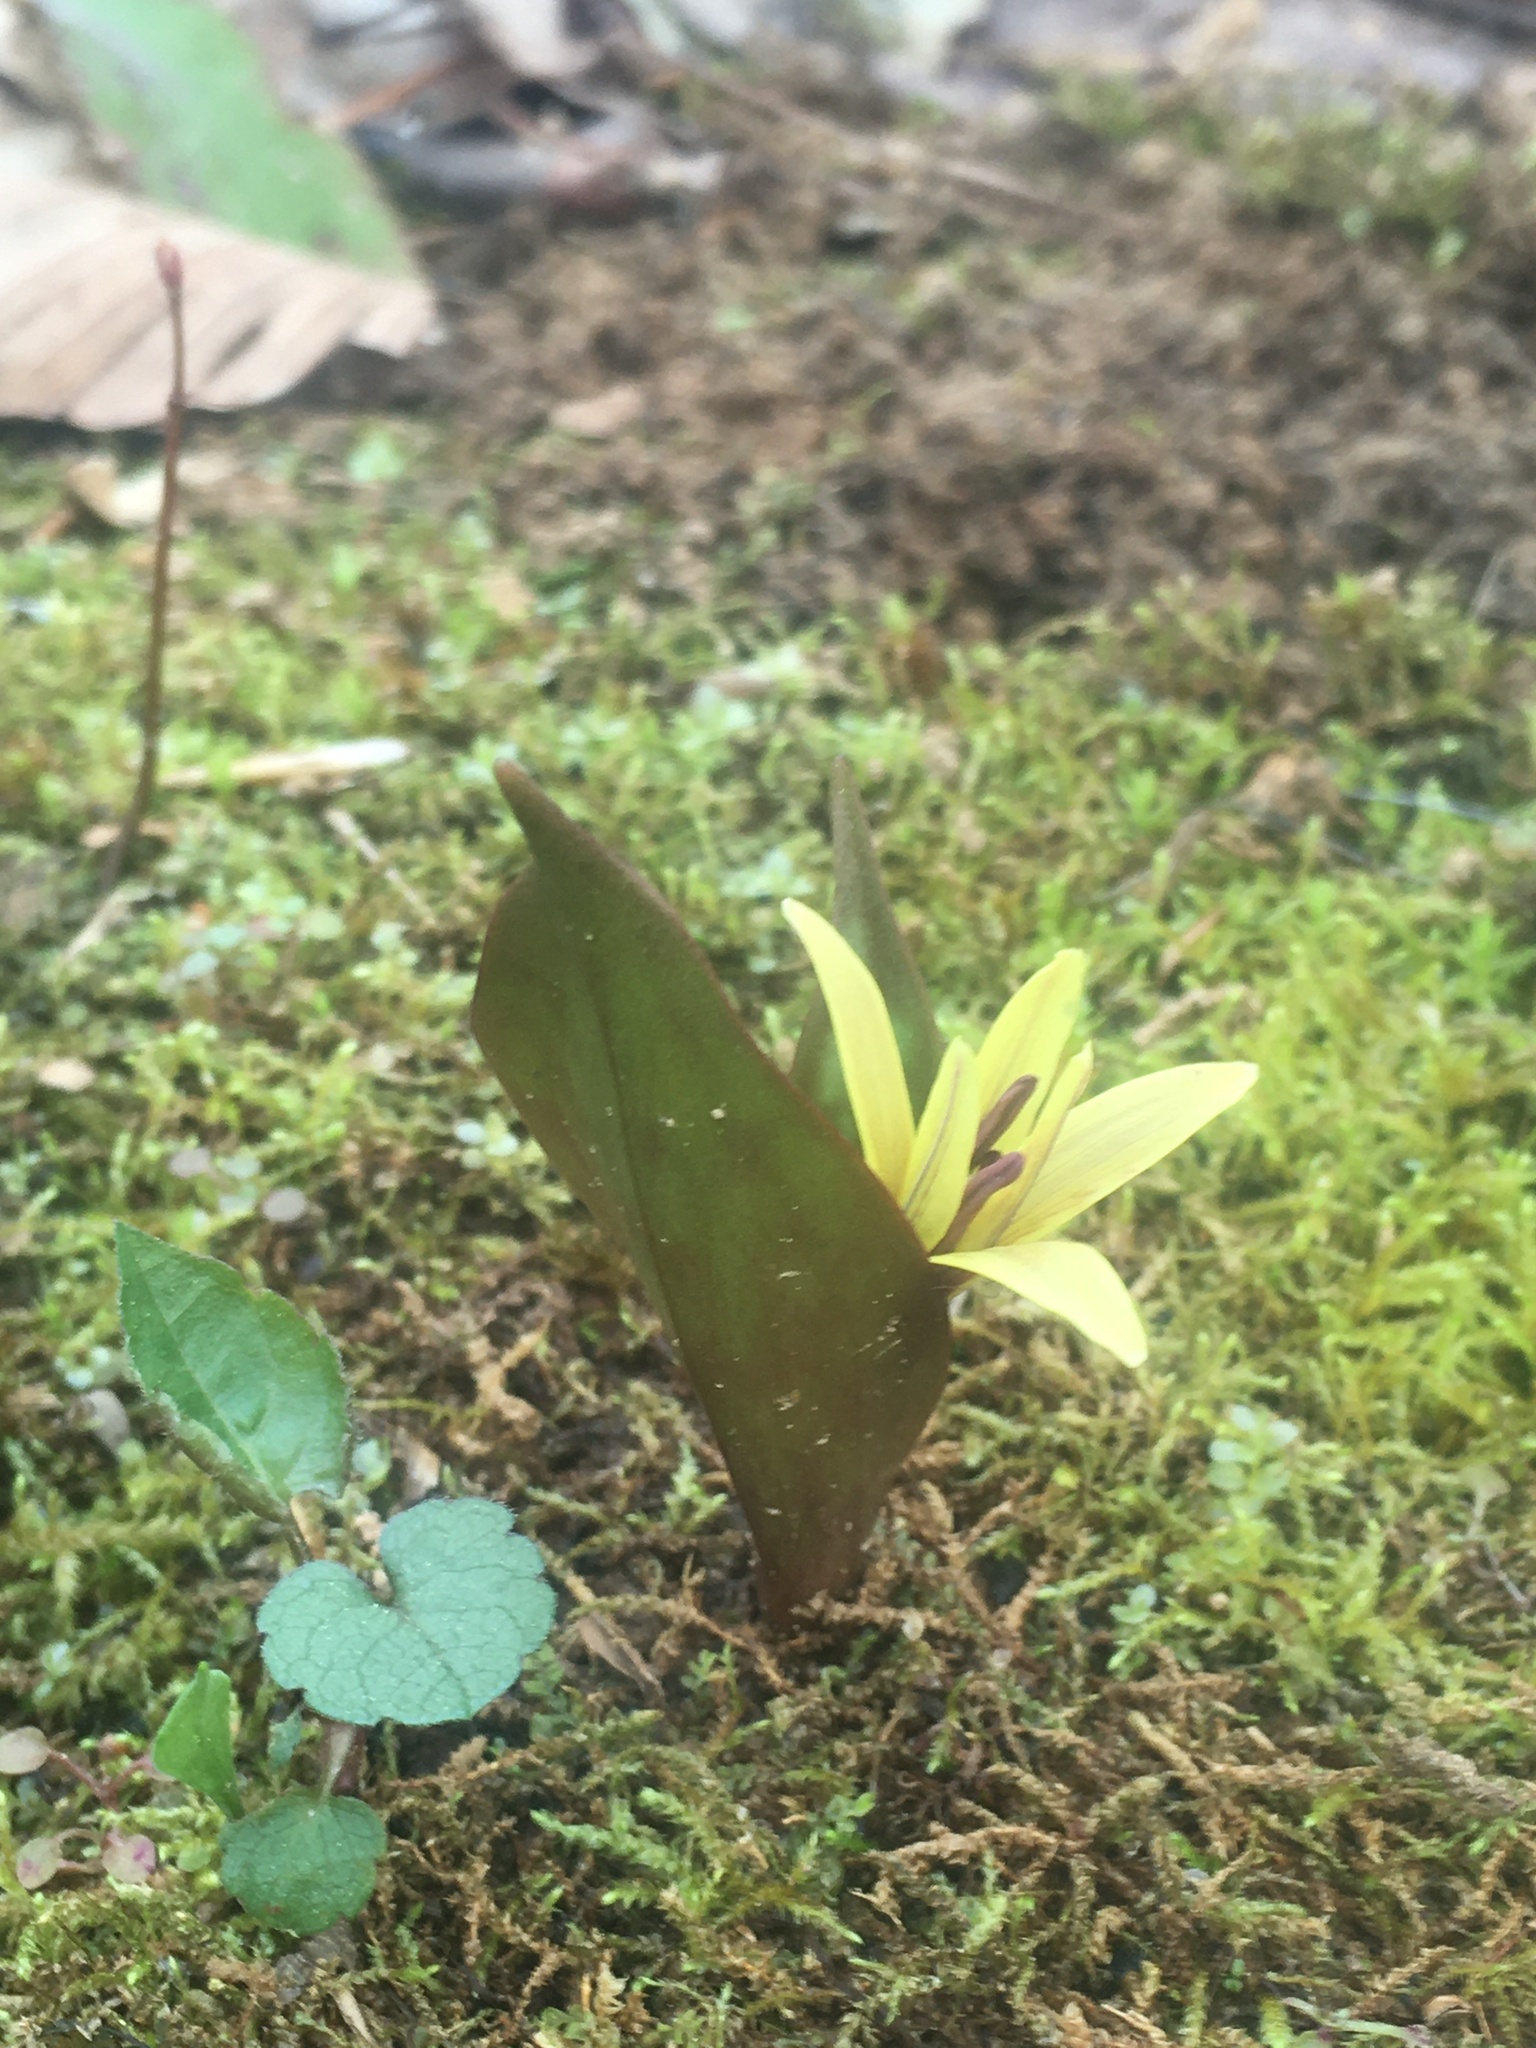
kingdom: Plantae
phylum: Tracheophyta
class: Liliopsida
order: Liliales
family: Liliaceae
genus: Erythronium
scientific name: Erythronium umbilicatum
